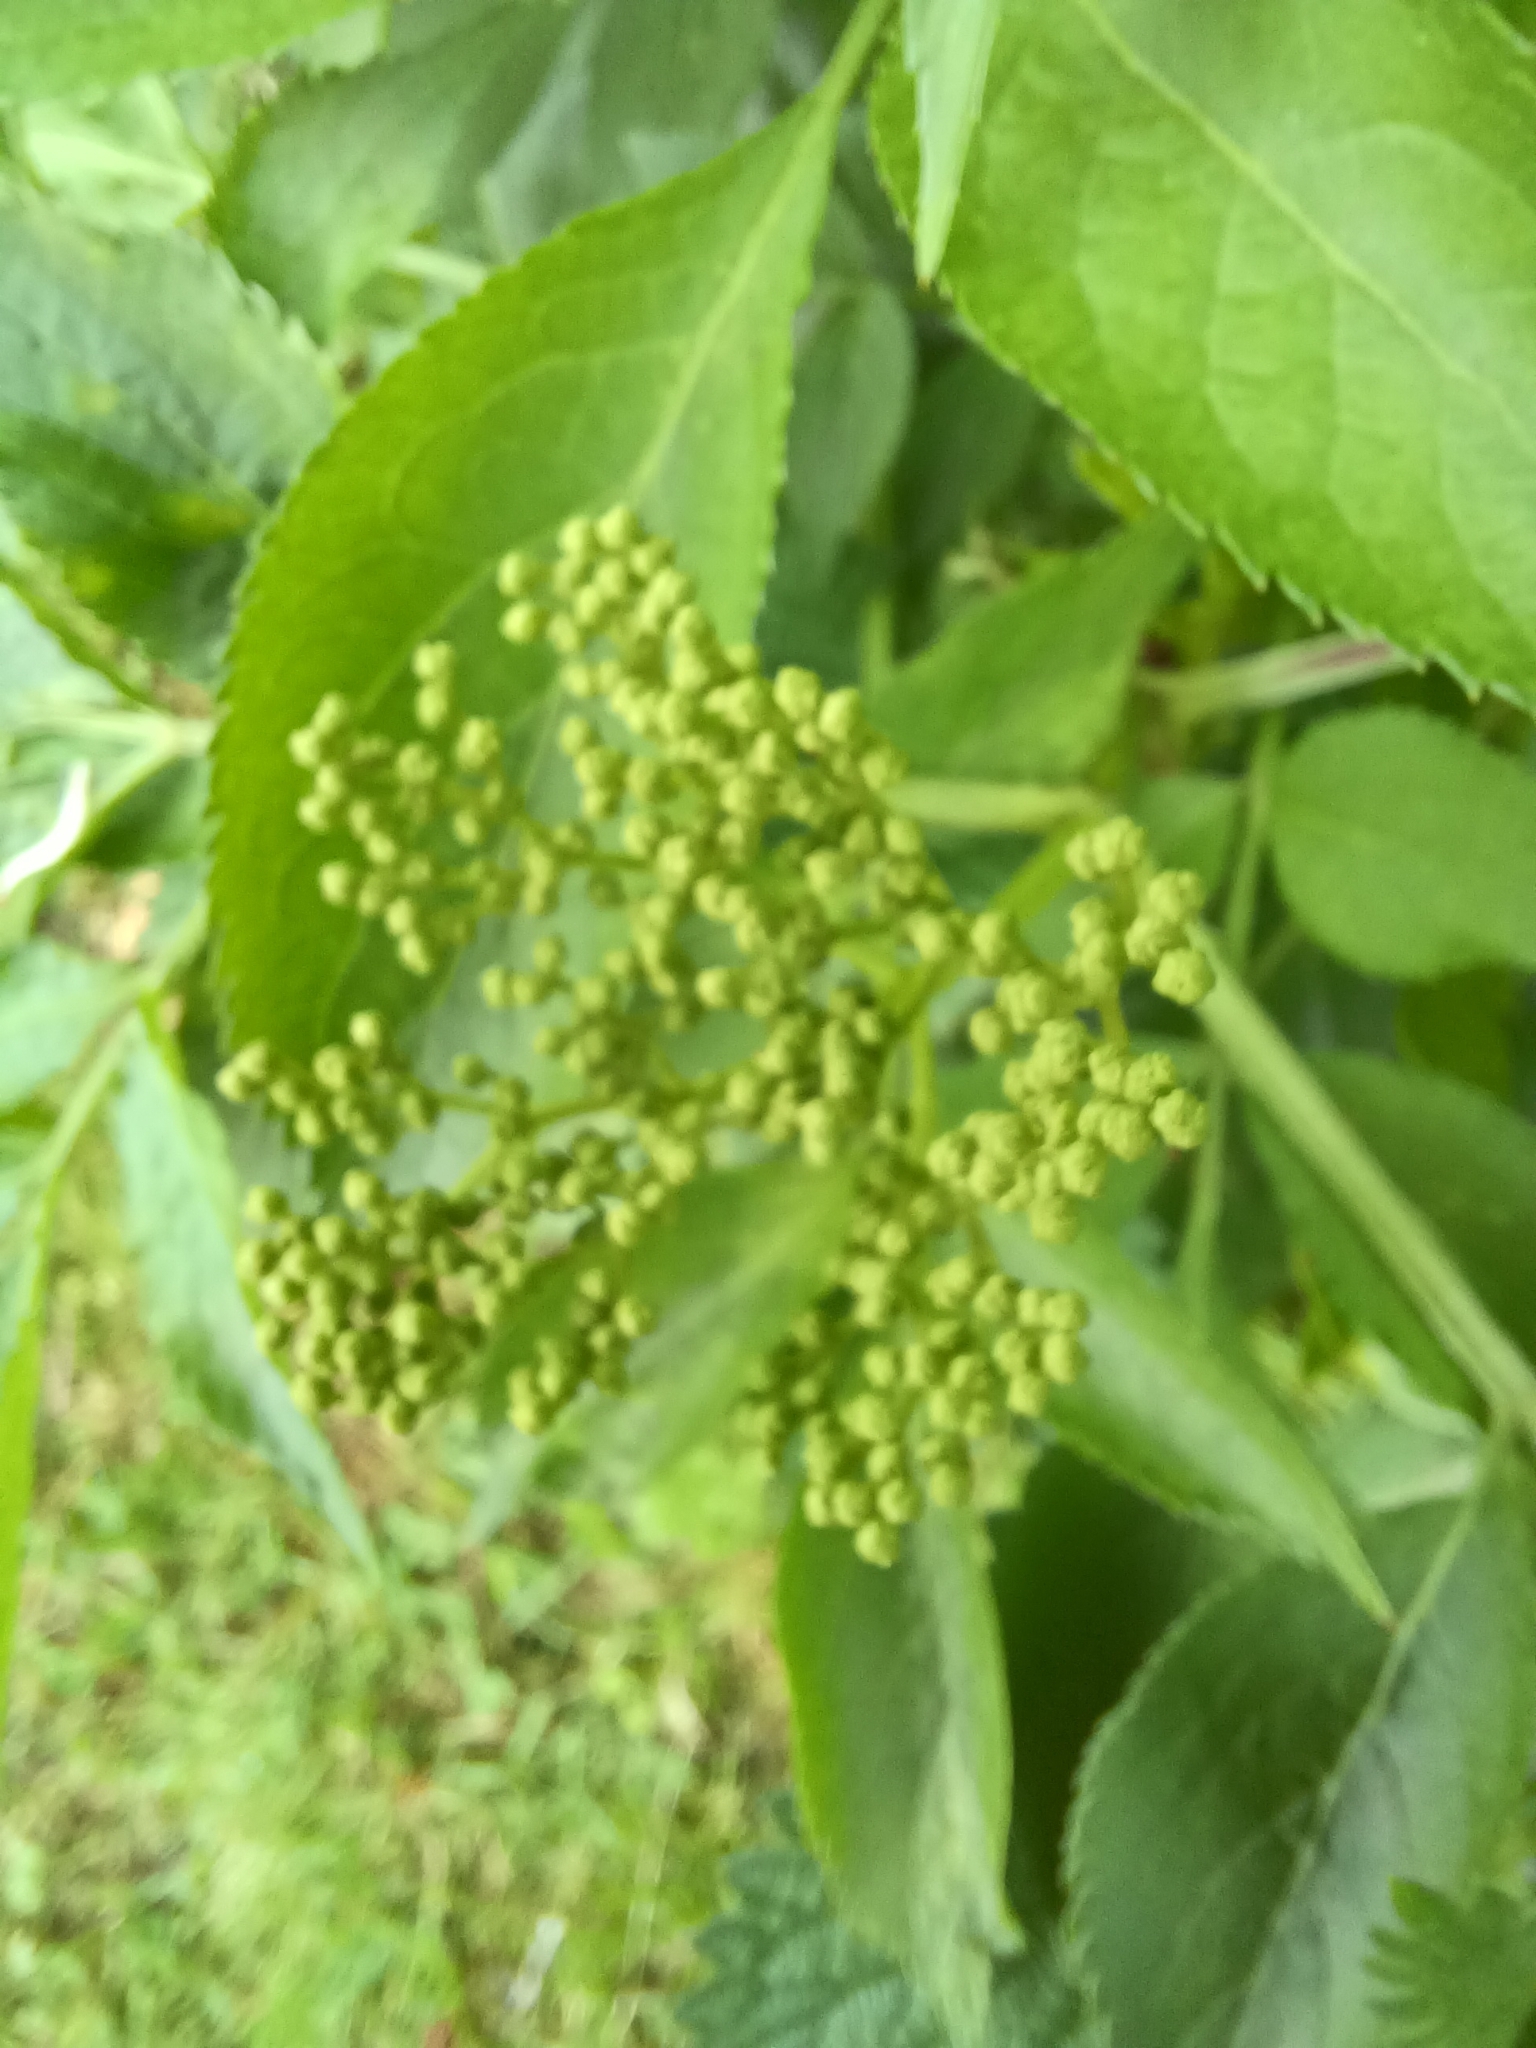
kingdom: Plantae
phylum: Tracheophyta
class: Magnoliopsida
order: Dipsacales
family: Viburnaceae
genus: Sambucus
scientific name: Sambucus nigra
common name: Elder
